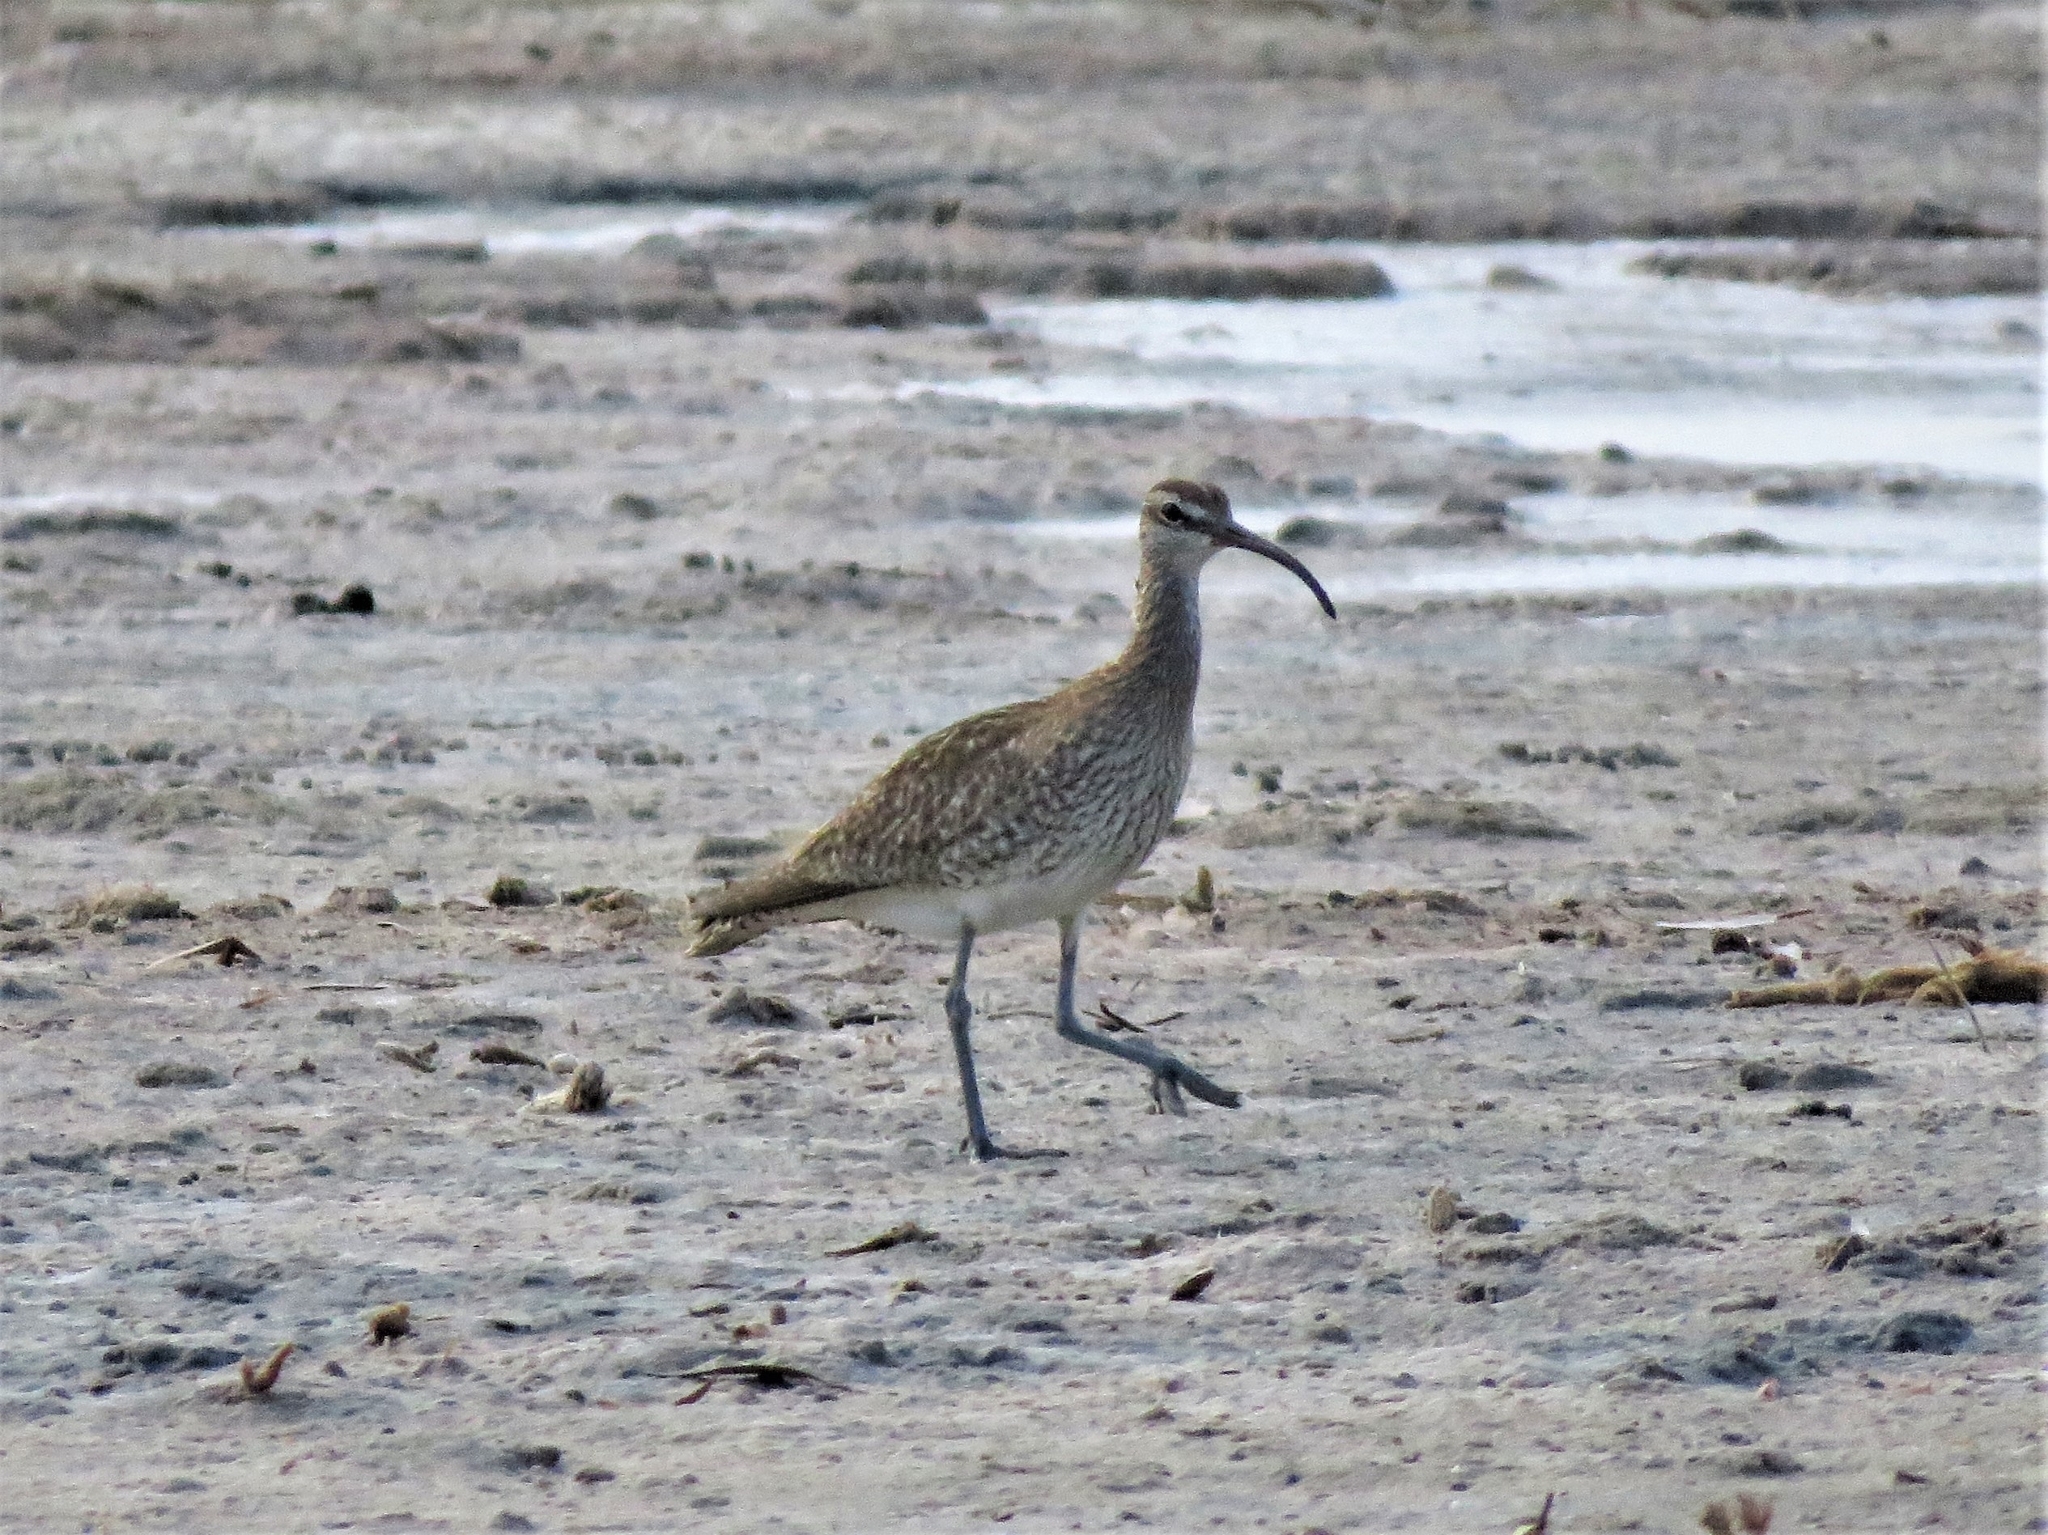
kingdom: Animalia
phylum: Chordata
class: Aves
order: Charadriiformes
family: Scolopacidae
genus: Numenius
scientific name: Numenius phaeopus
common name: Whimbrel
